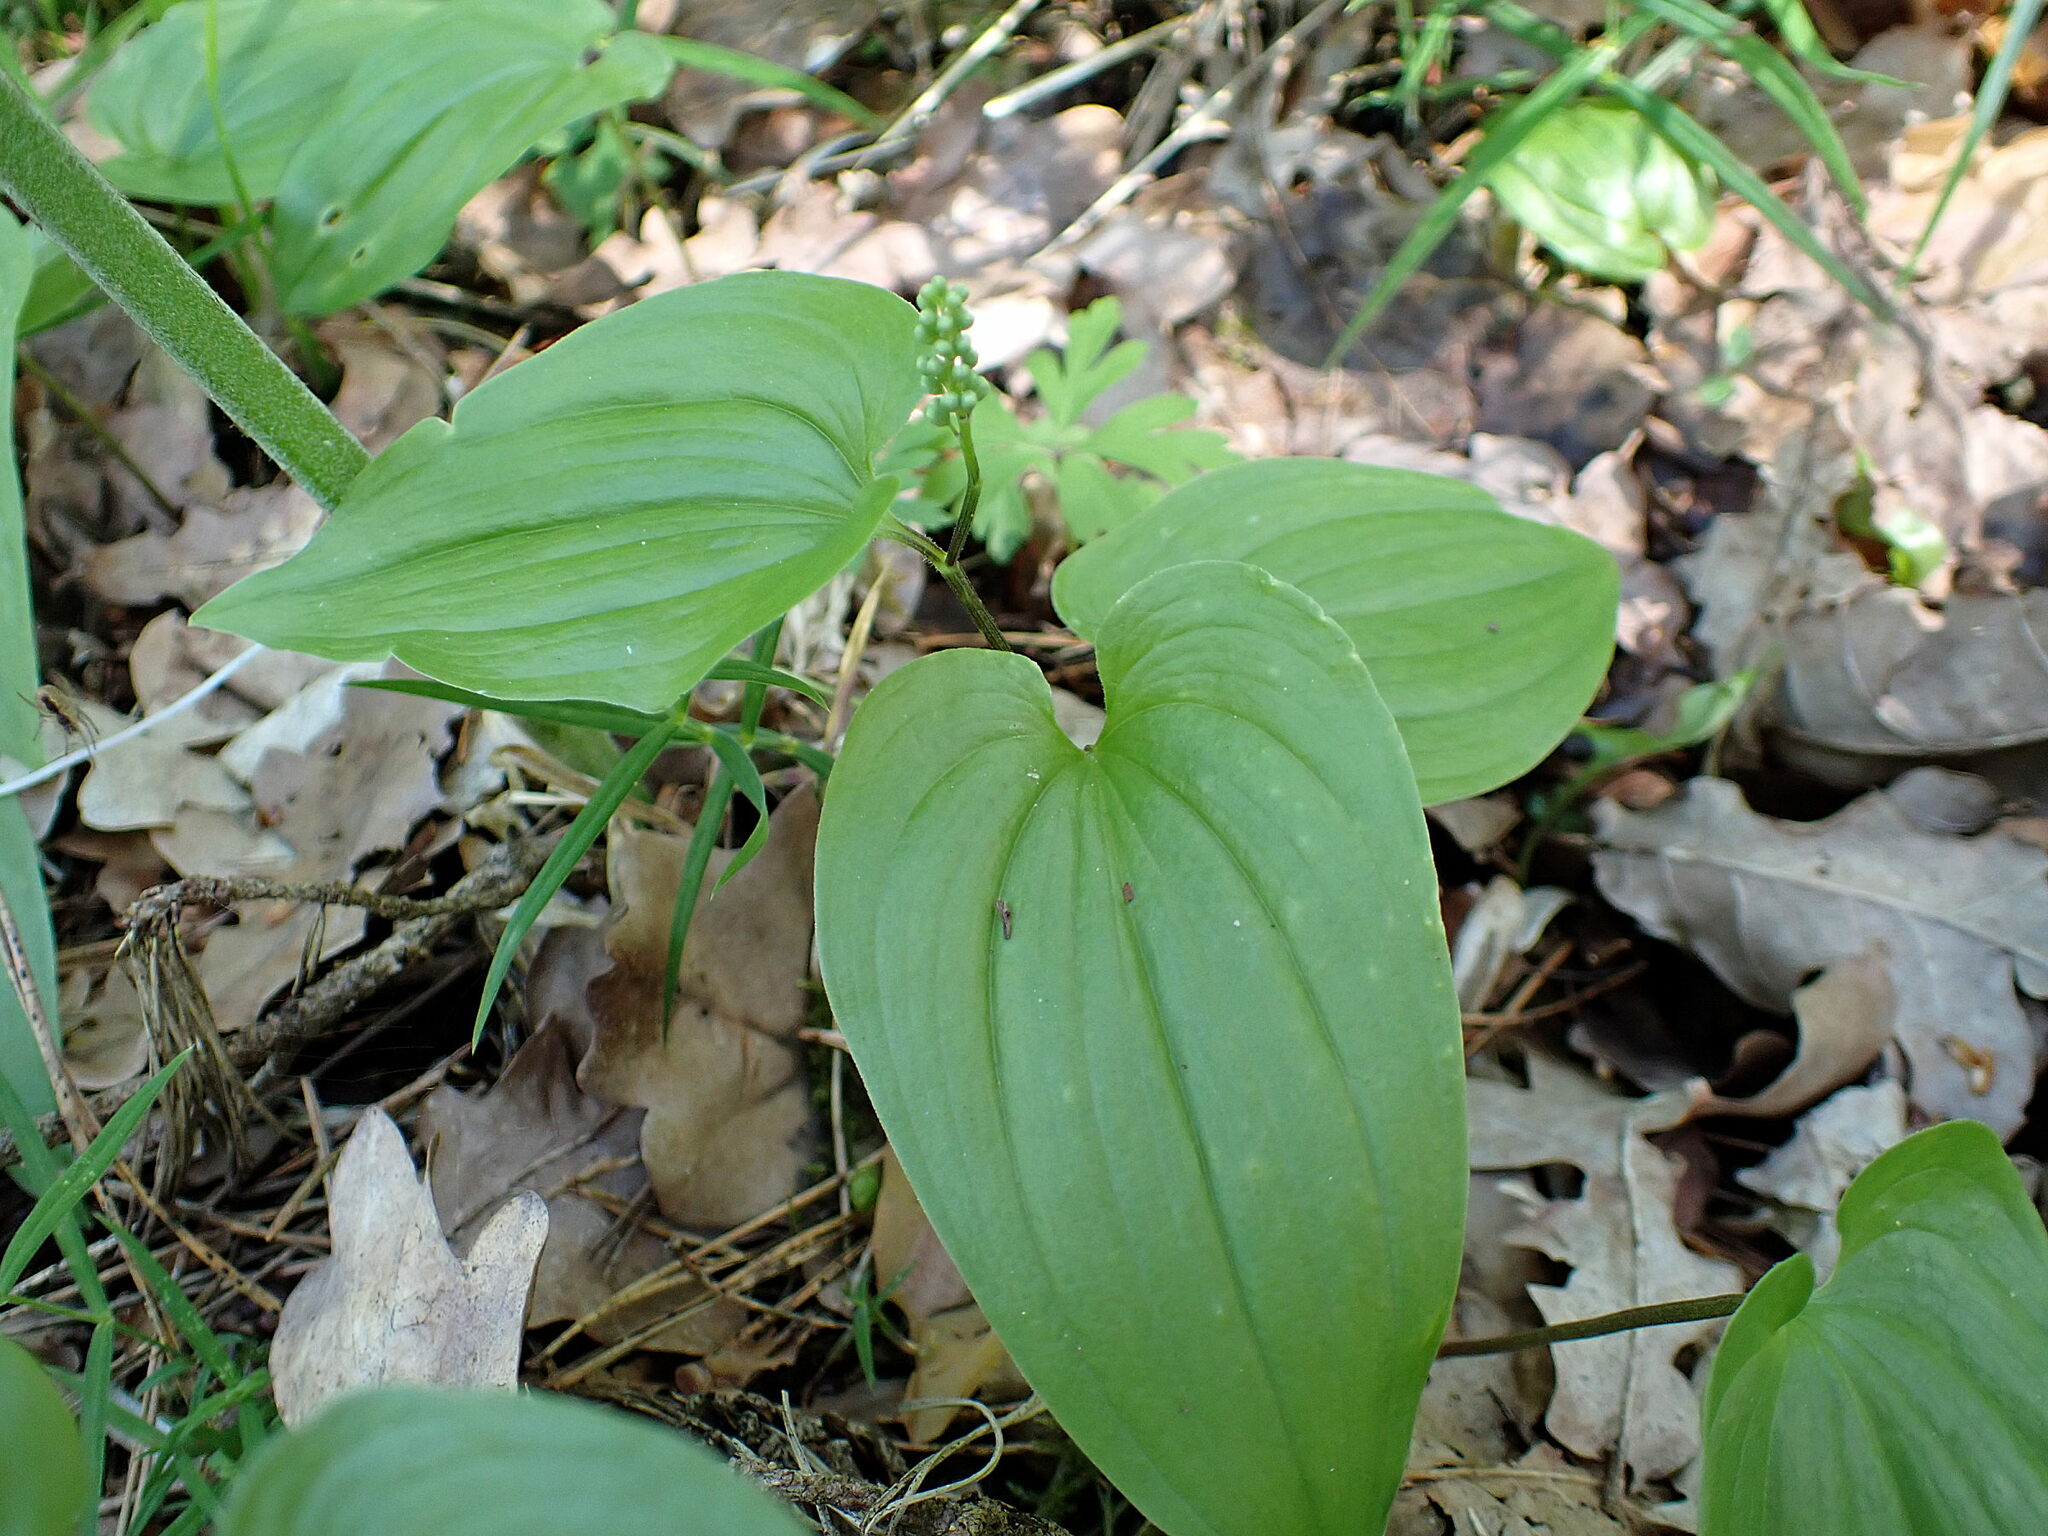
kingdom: Plantae
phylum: Tracheophyta
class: Liliopsida
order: Asparagales
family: Asparagaceae
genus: Maianthemum
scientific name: Maianthemum bifolium
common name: May lily
